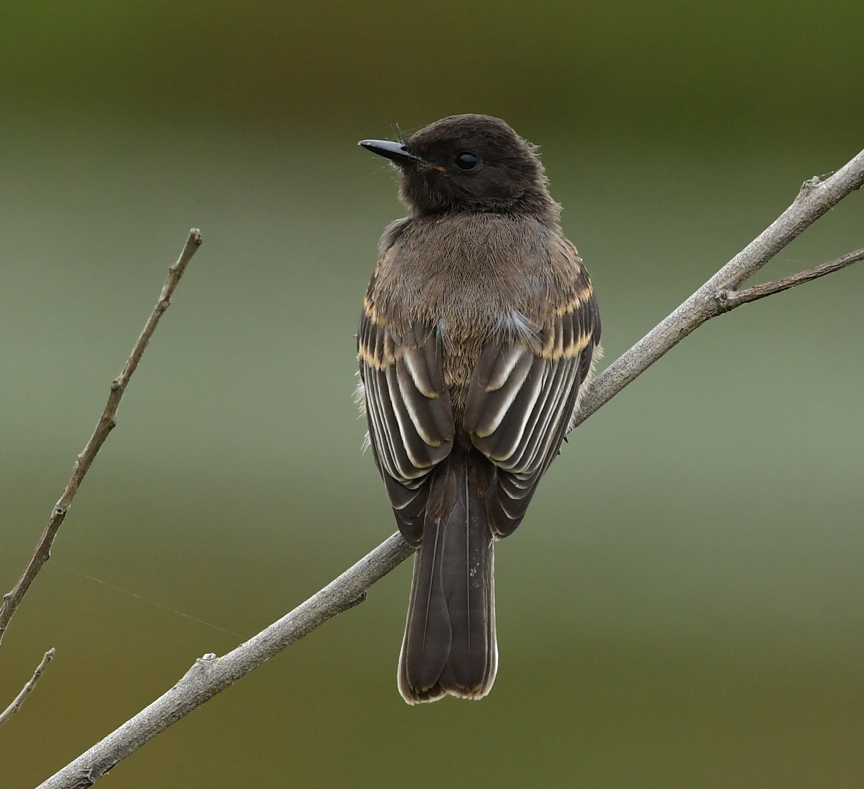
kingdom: Animalia
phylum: Chordata
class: Aves
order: Passeriformes
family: Tyrannidae
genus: Sayornis
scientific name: Sayornis nigricans
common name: Black phoebe
